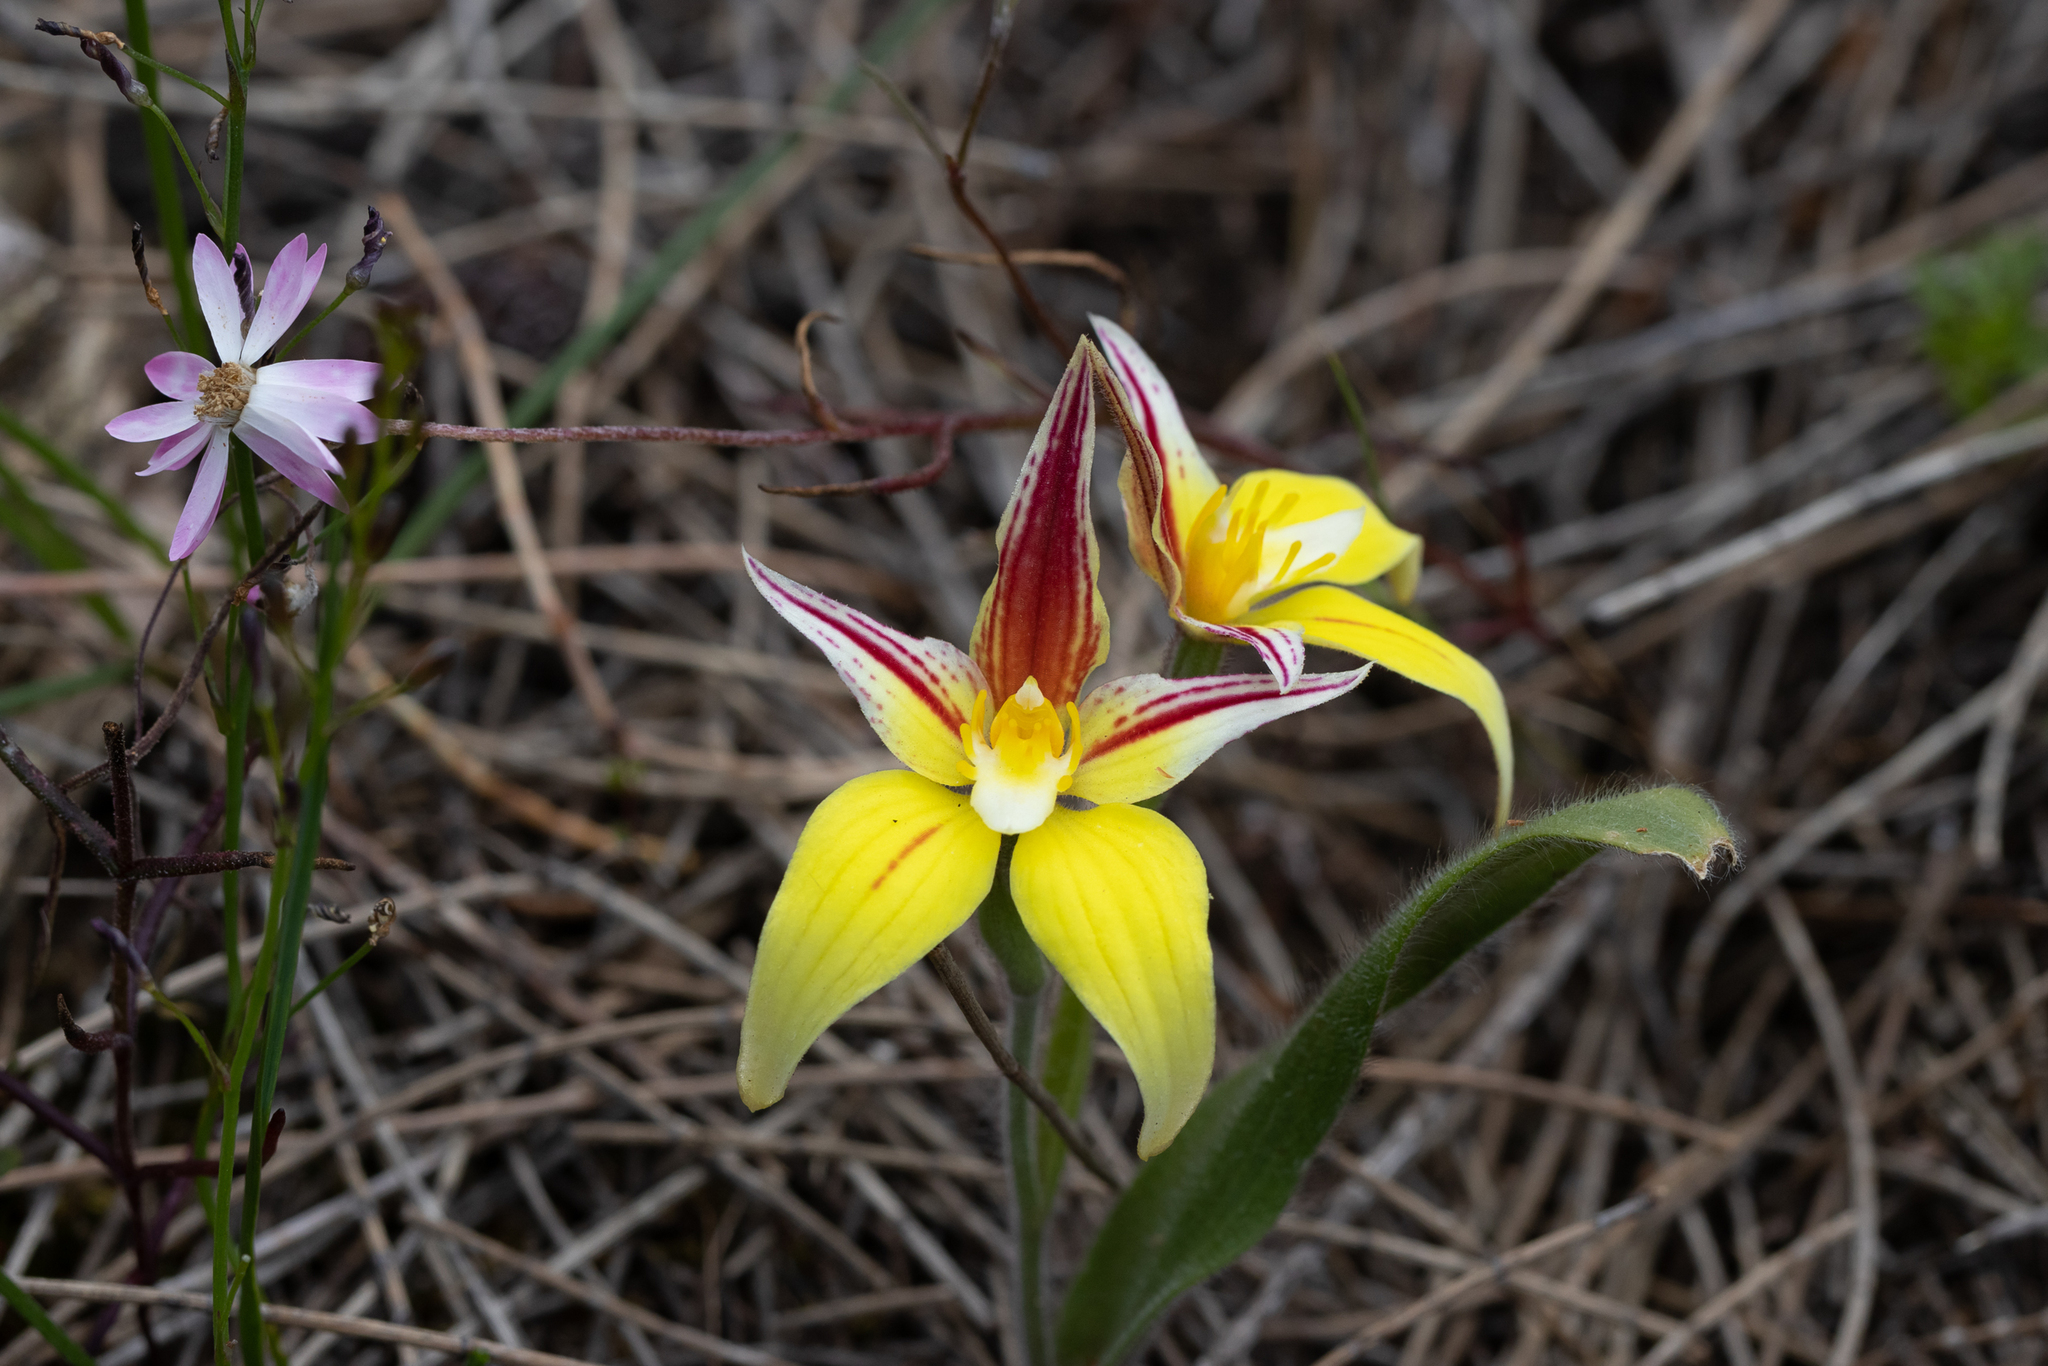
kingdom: Plantae
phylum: Tracheophyta
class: Liliopsida
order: Asparagales
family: Orchidaceae
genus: Caladenia
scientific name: Caladenia flava
